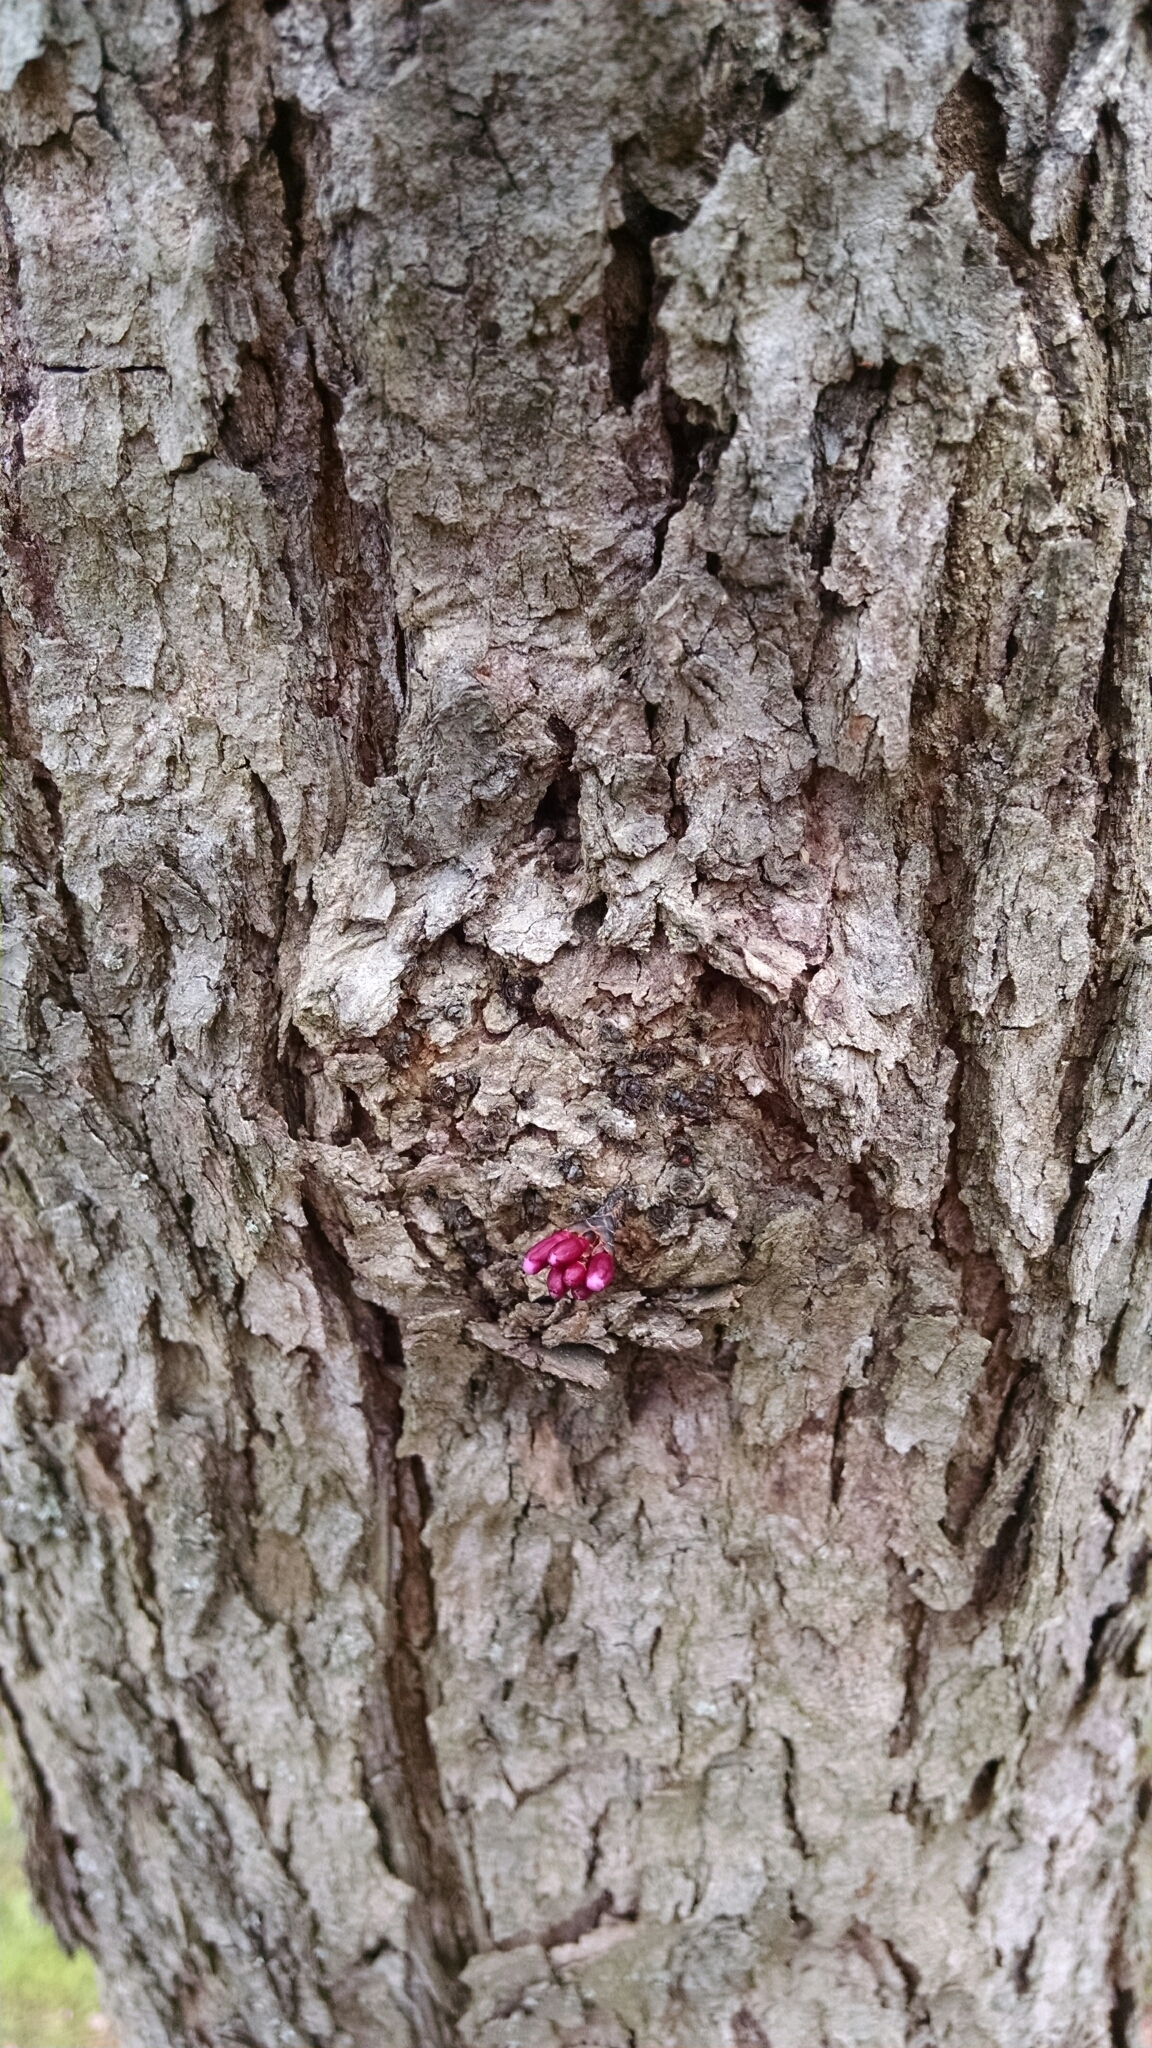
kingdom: Plantae
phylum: Tracheophyta
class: Magnoliopsida
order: Fabales
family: Fabaceae
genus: Cercis
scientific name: Cercis canadensis
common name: Eastern redbud
